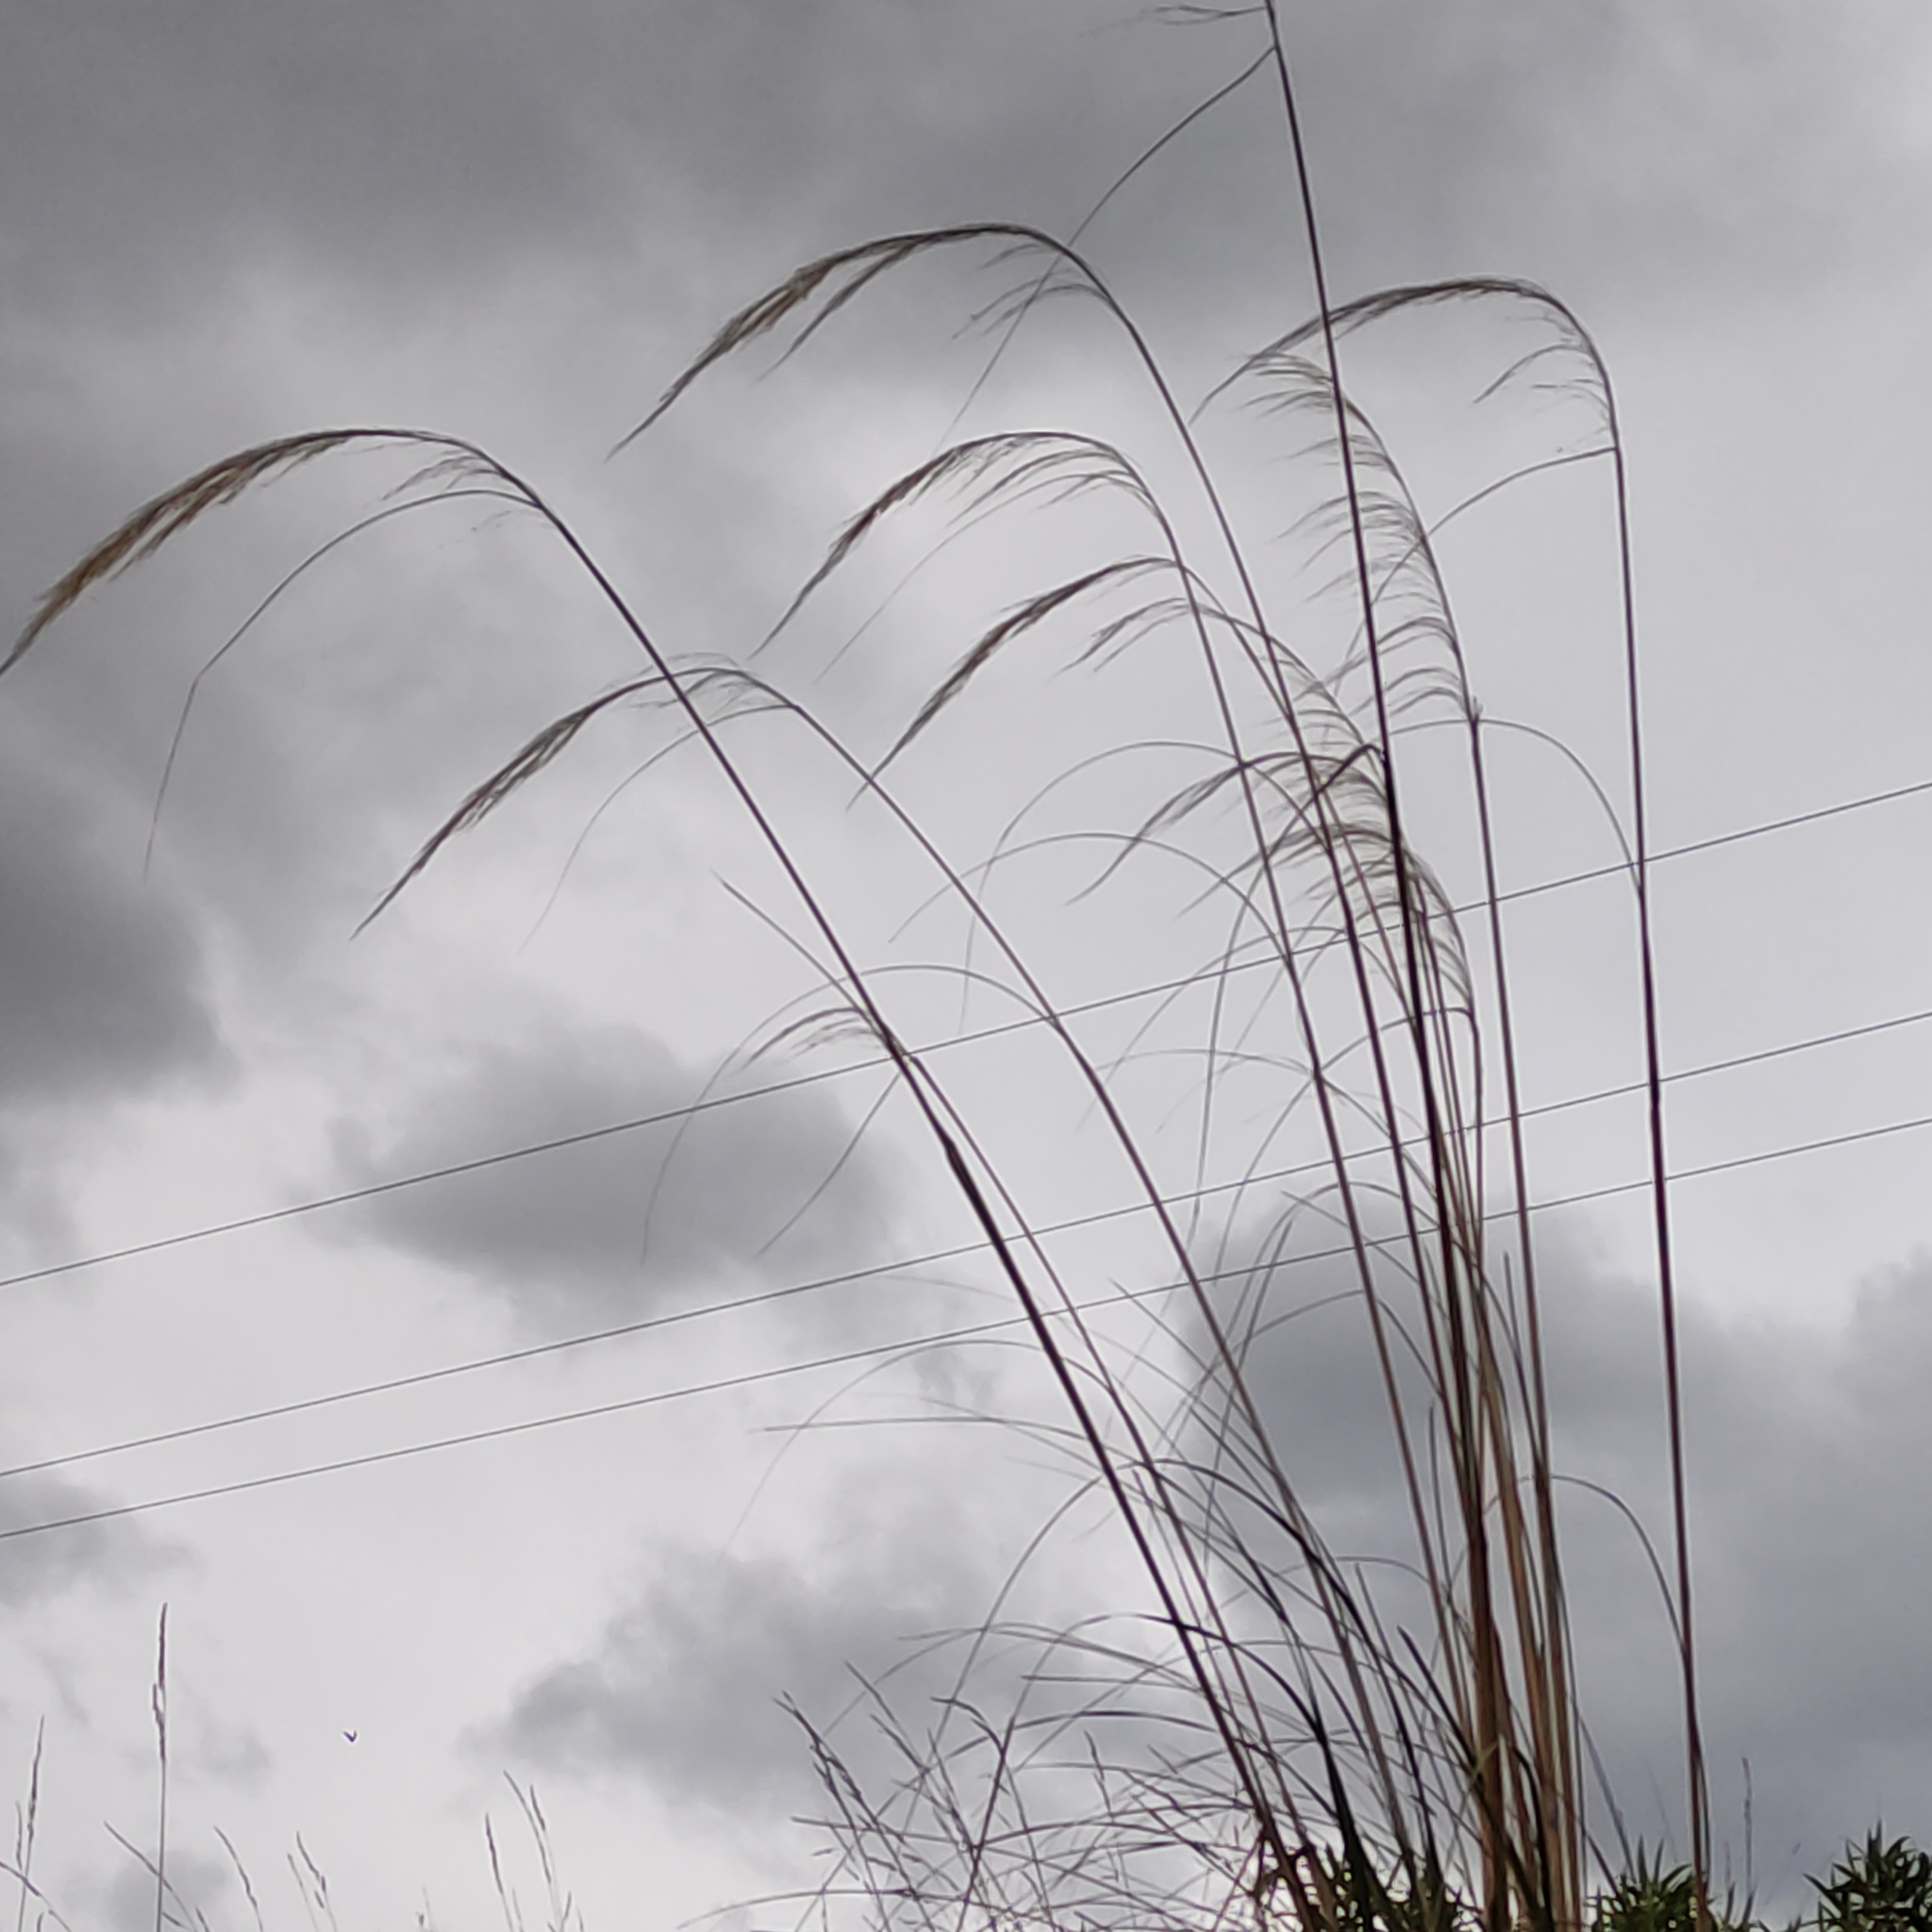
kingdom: Plantae
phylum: Tracheophyta
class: Liliopsida
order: Poales
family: Poaceae
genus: Austroderia
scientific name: Austroderia richardii
